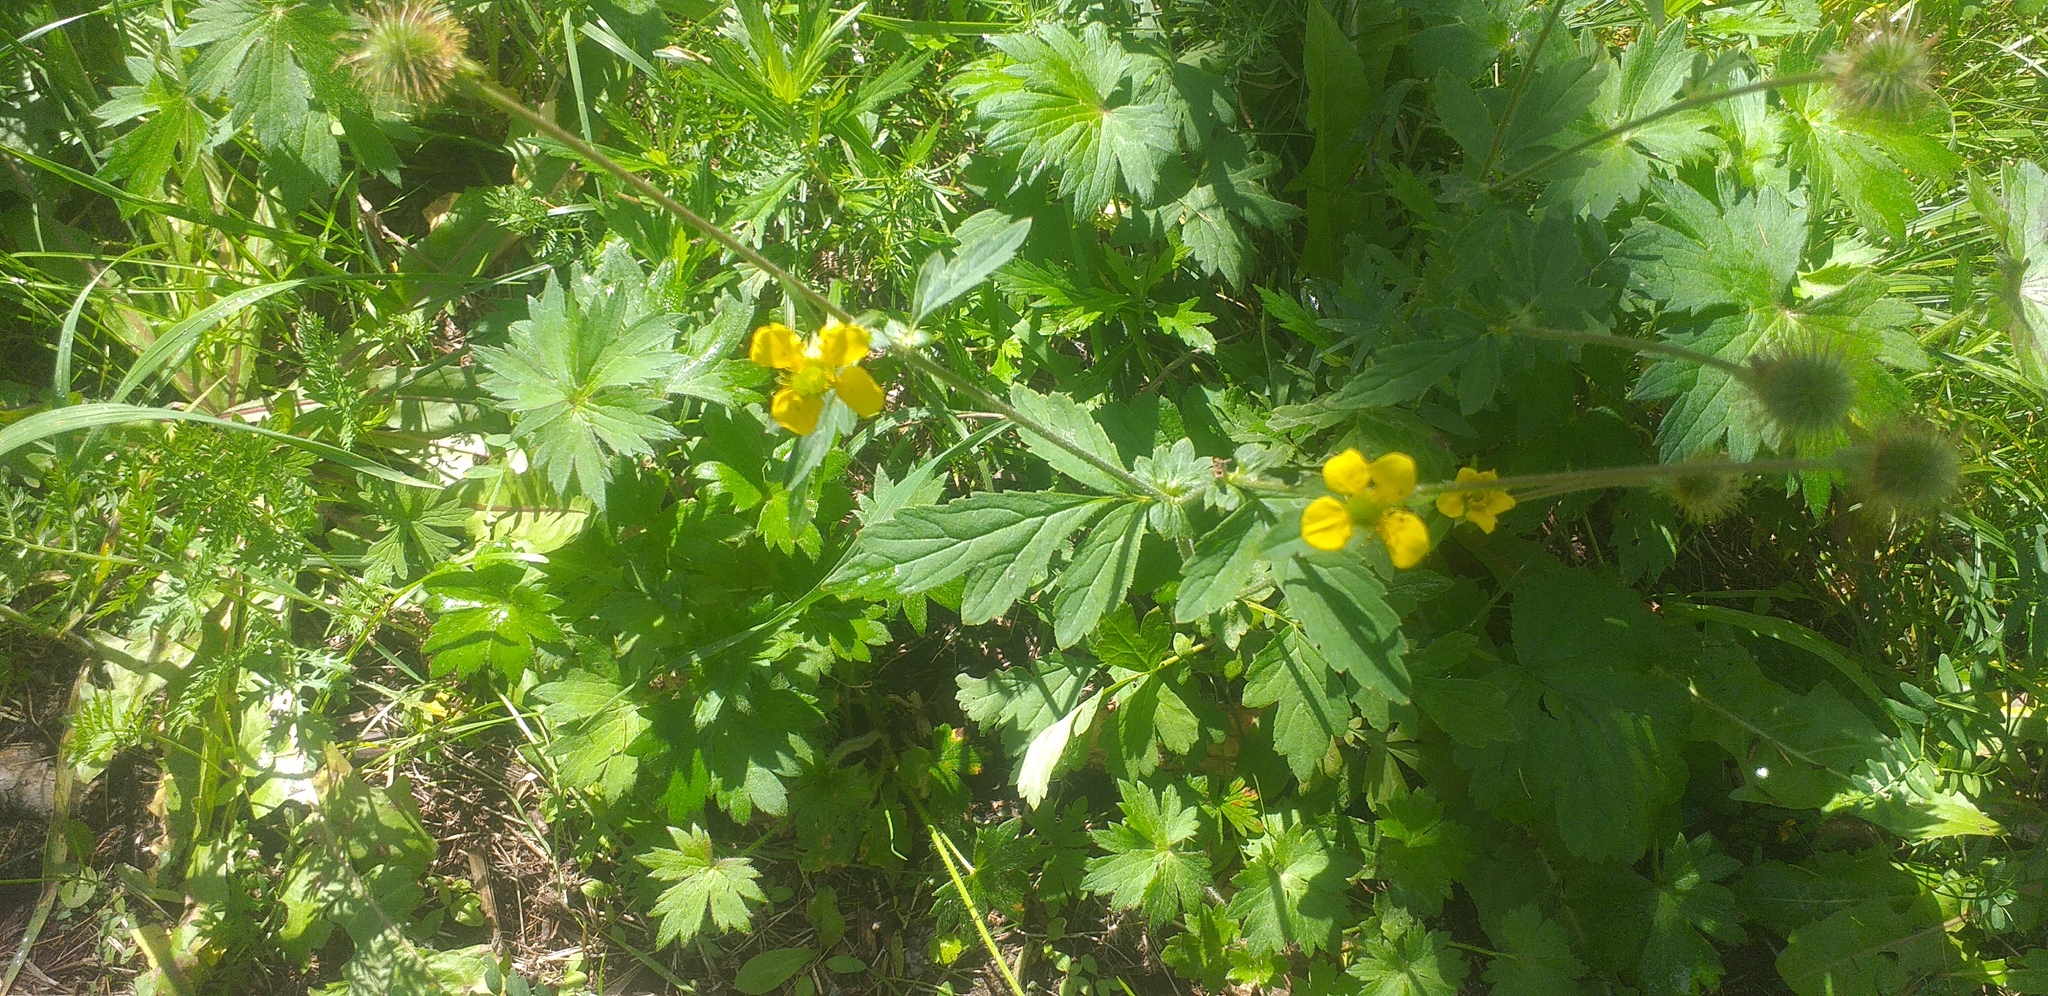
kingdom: Plantae
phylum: Tracheophyta
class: Magnoliopsida
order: Rosales
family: Rosaceae
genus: Geum
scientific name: Geum aleppicum
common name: Yellow avens
